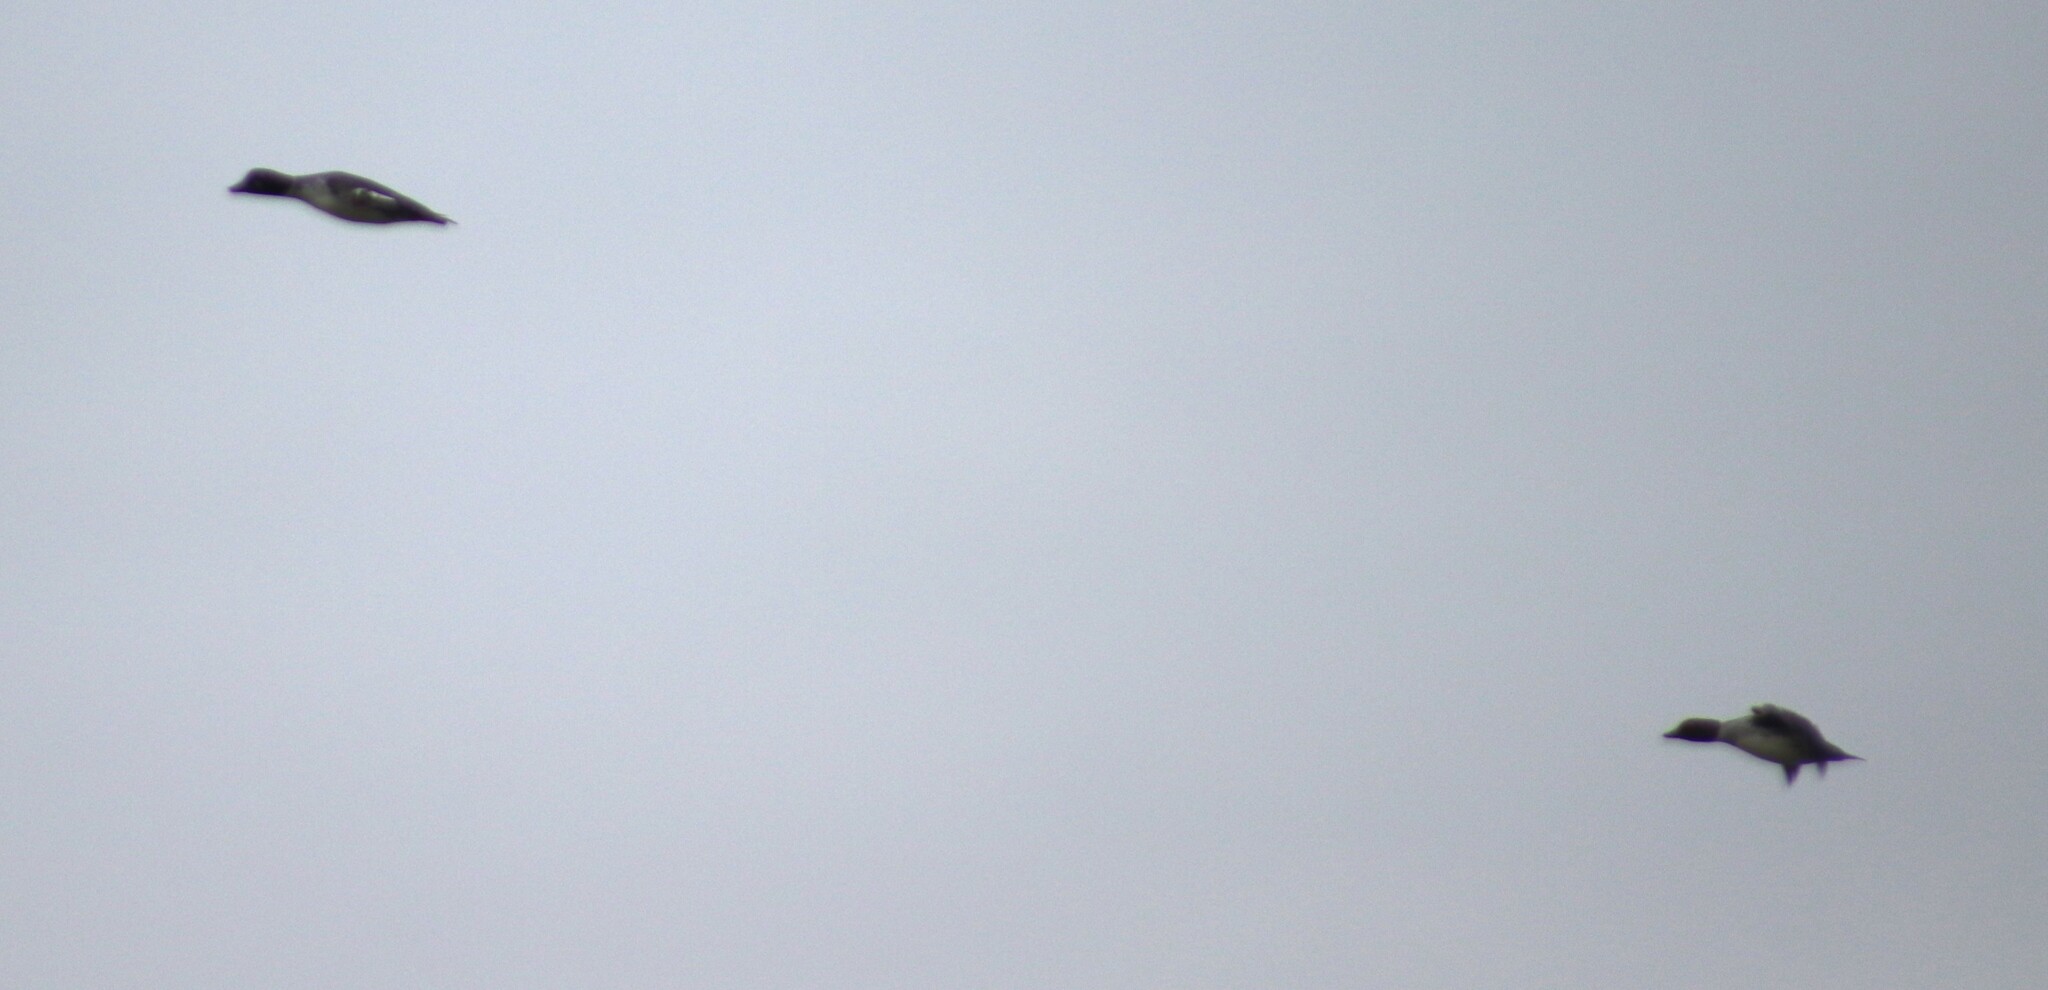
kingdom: Animalia
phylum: Chordata
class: Aves
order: Anseriformes
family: Anatidae
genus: Bucephala
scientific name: Bucephala clangula
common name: Common goldeneye
